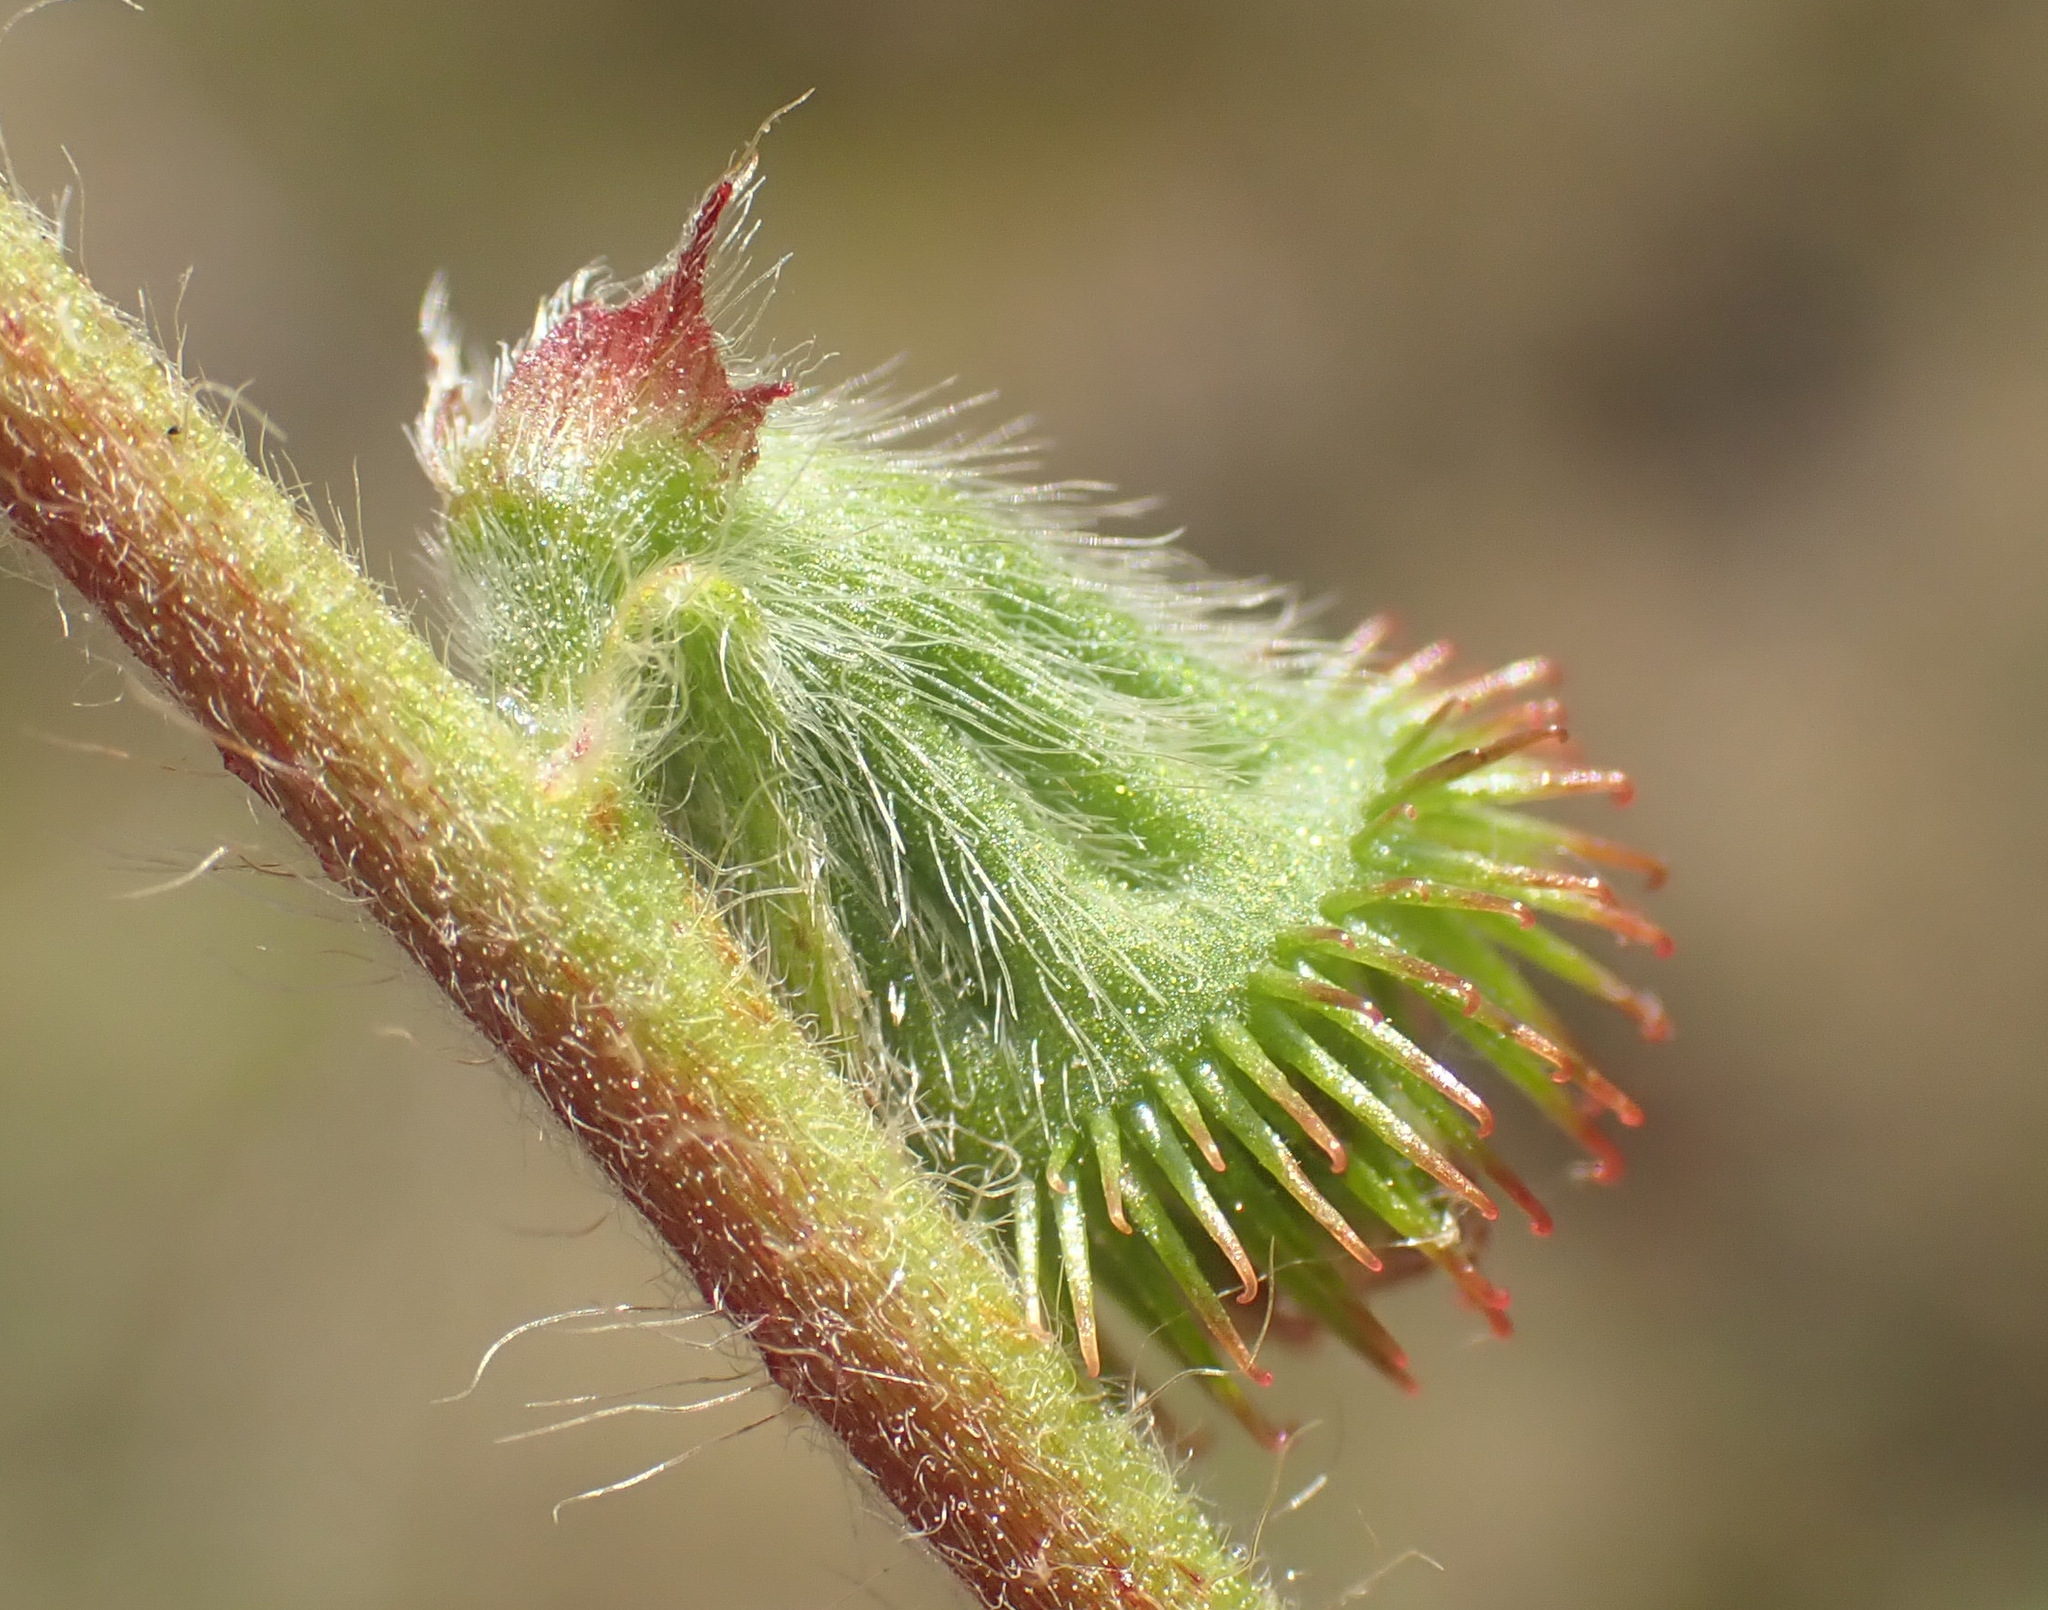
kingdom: Plantae
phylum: Tracheophyta
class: Magnoliopsida
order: Rosales
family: Rosaceae
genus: Agrimonia
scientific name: Agrimonia eupatoria
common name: Agrimony
